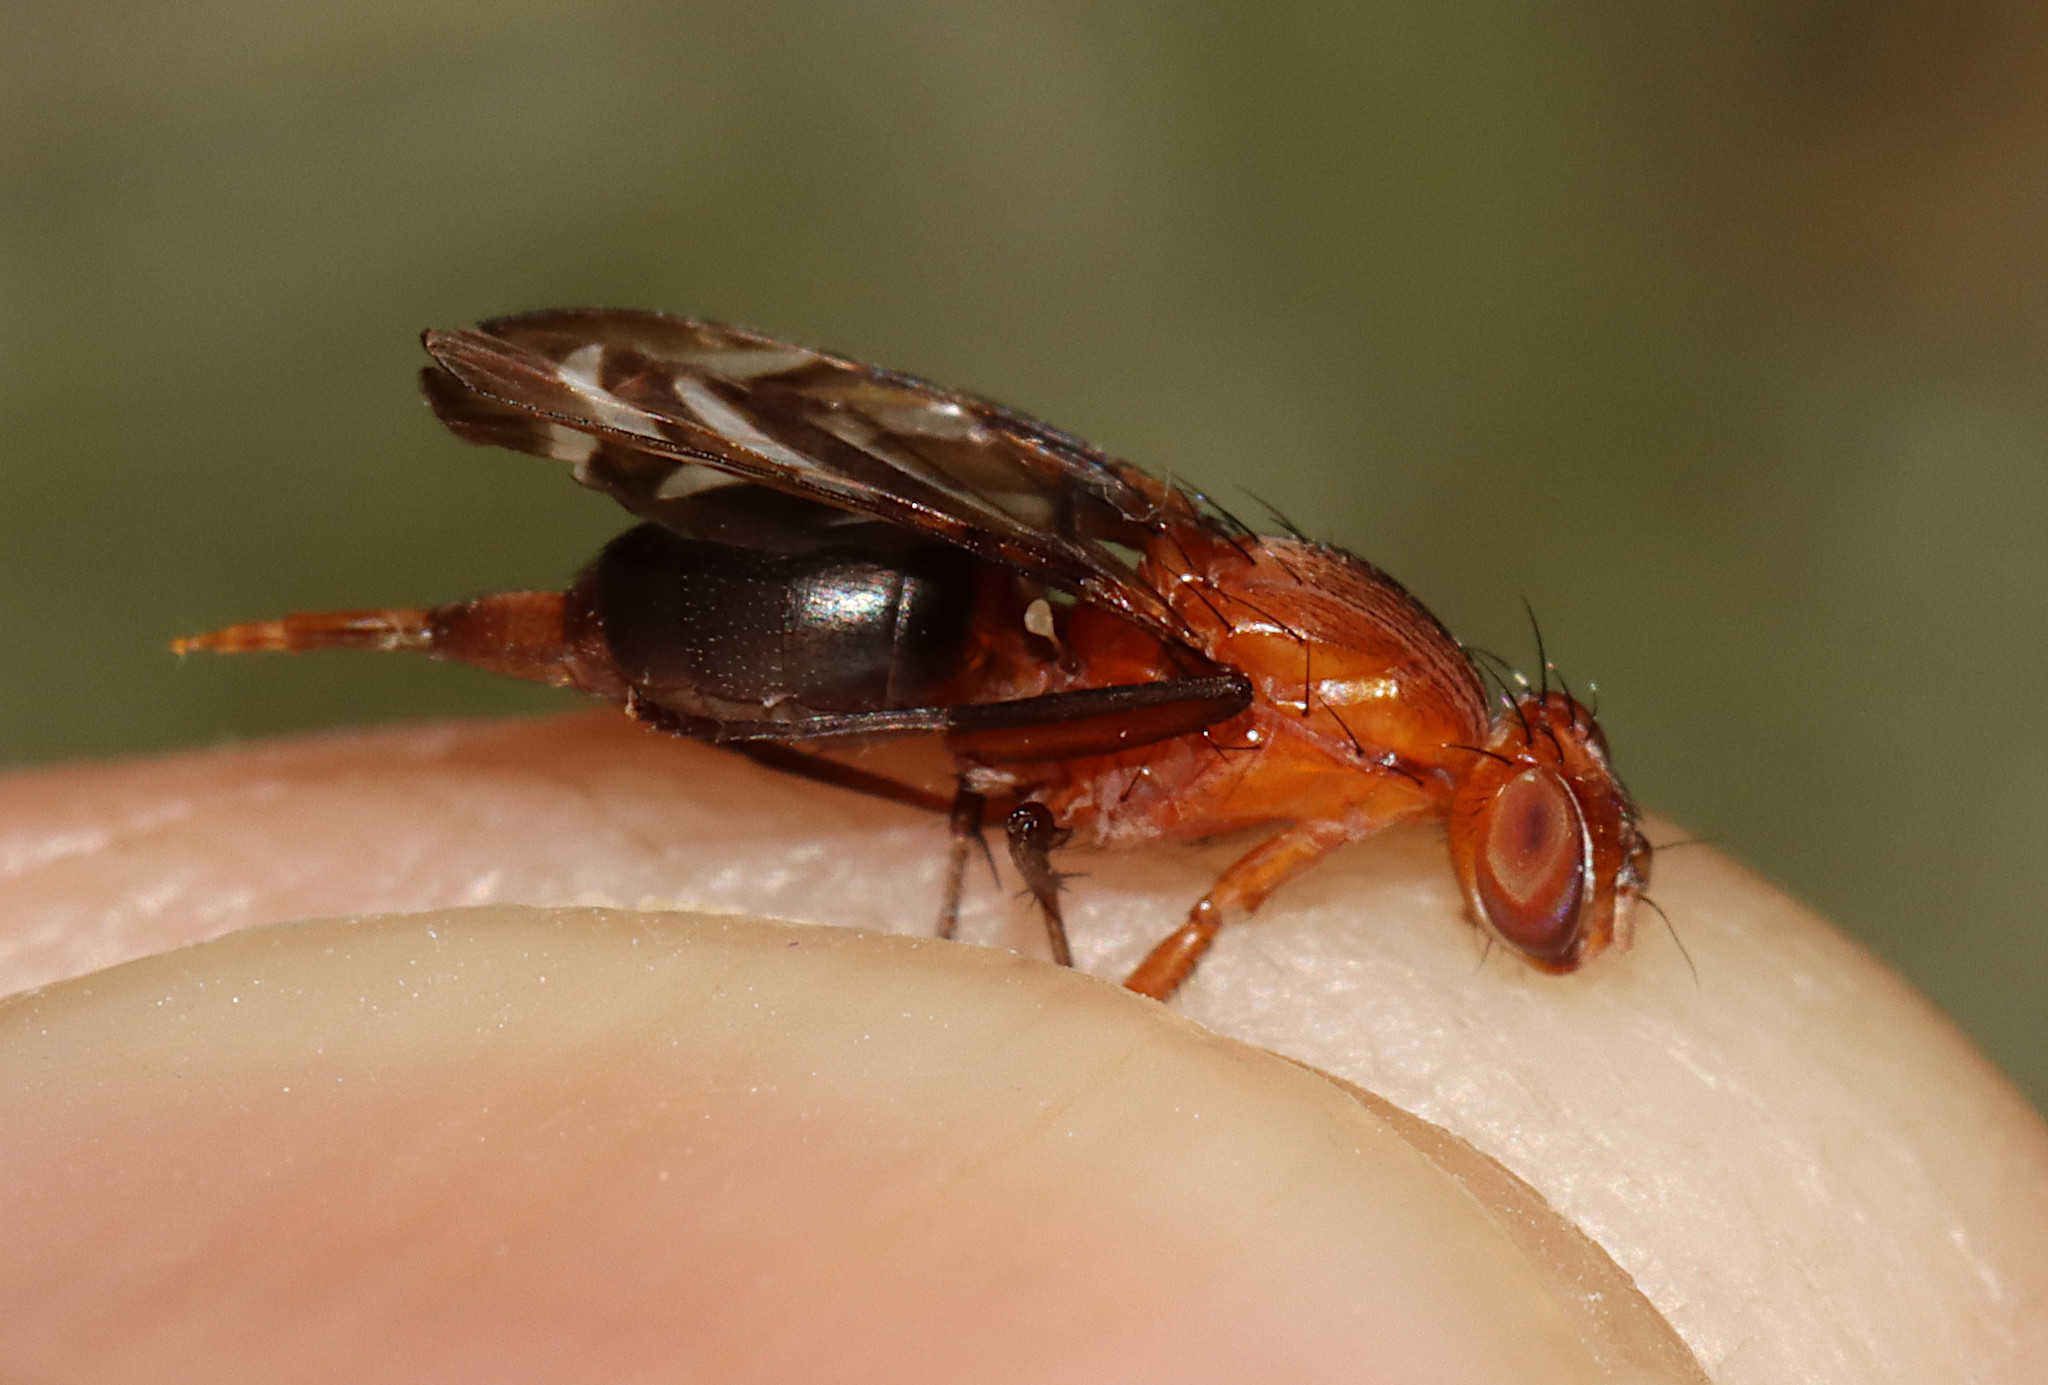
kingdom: Animalia
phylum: Arthropoda
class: Insecta
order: Diptera
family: Ulidiidae
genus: Tritoxa
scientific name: Tritoxa incurva
